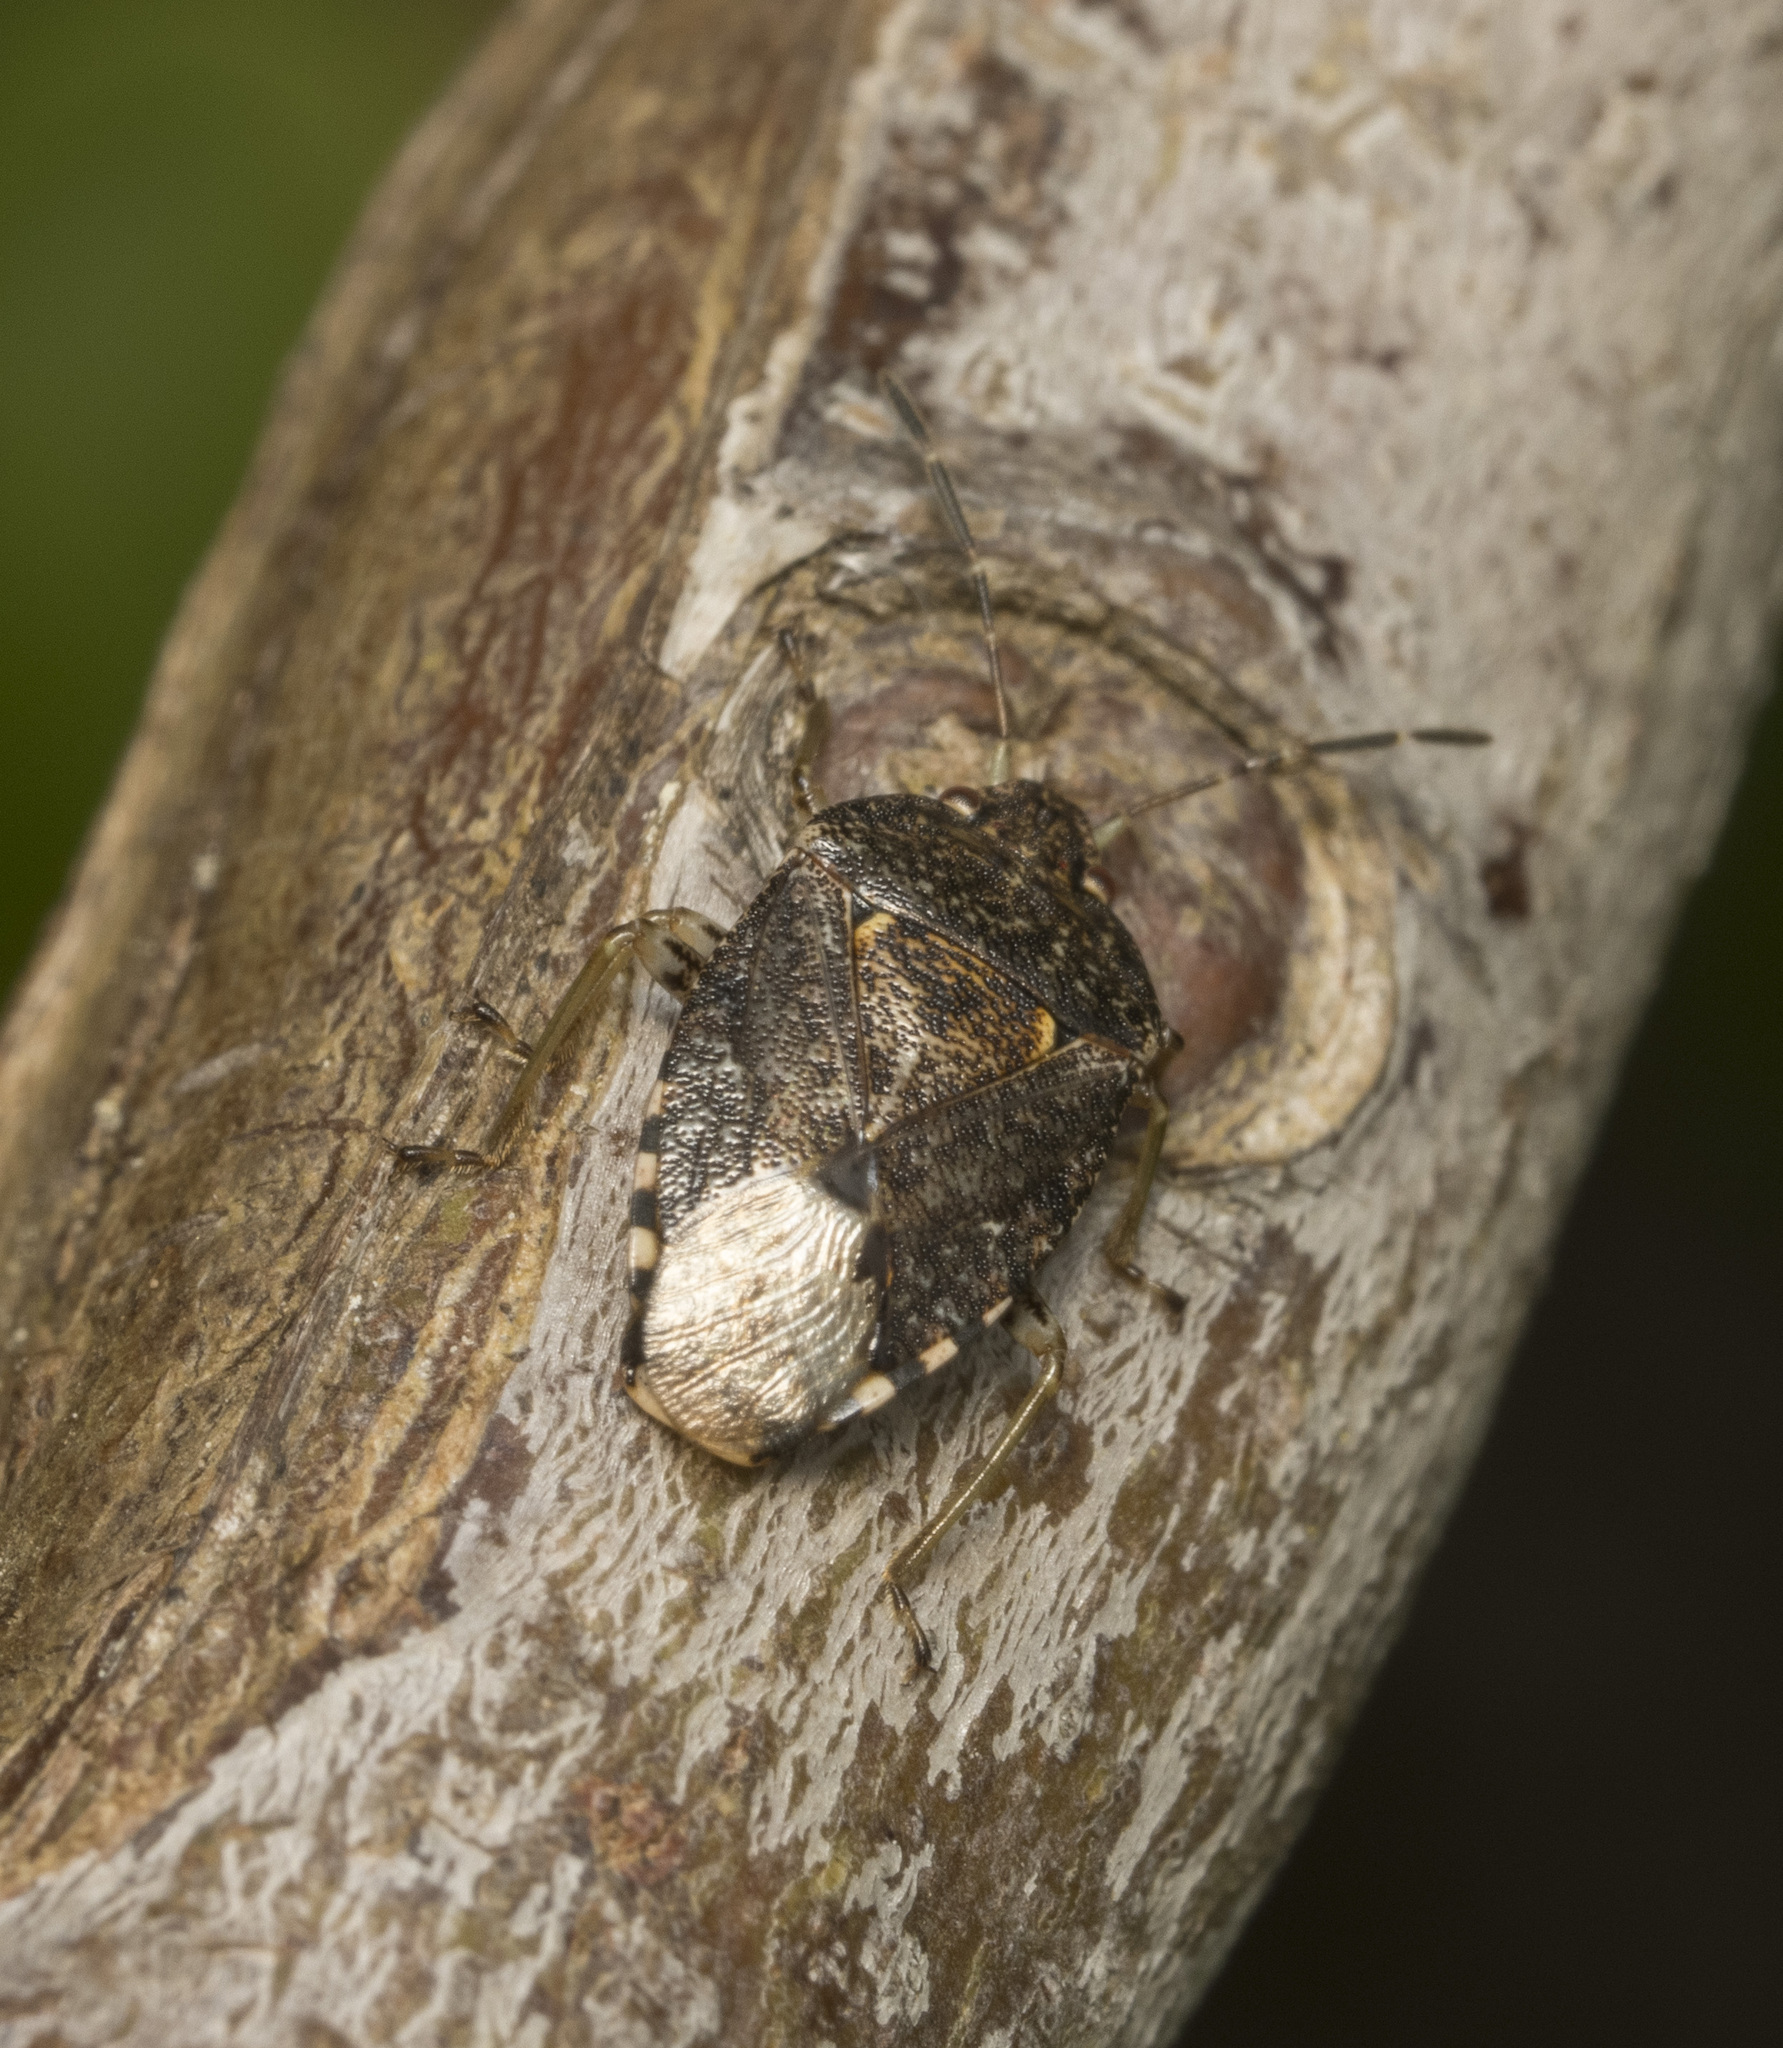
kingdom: Animalia
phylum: Arthropoda
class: Insecta
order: Hemiptera
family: Acanthosomatidae
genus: Acrophyma
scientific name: Acrophyma cumingii
